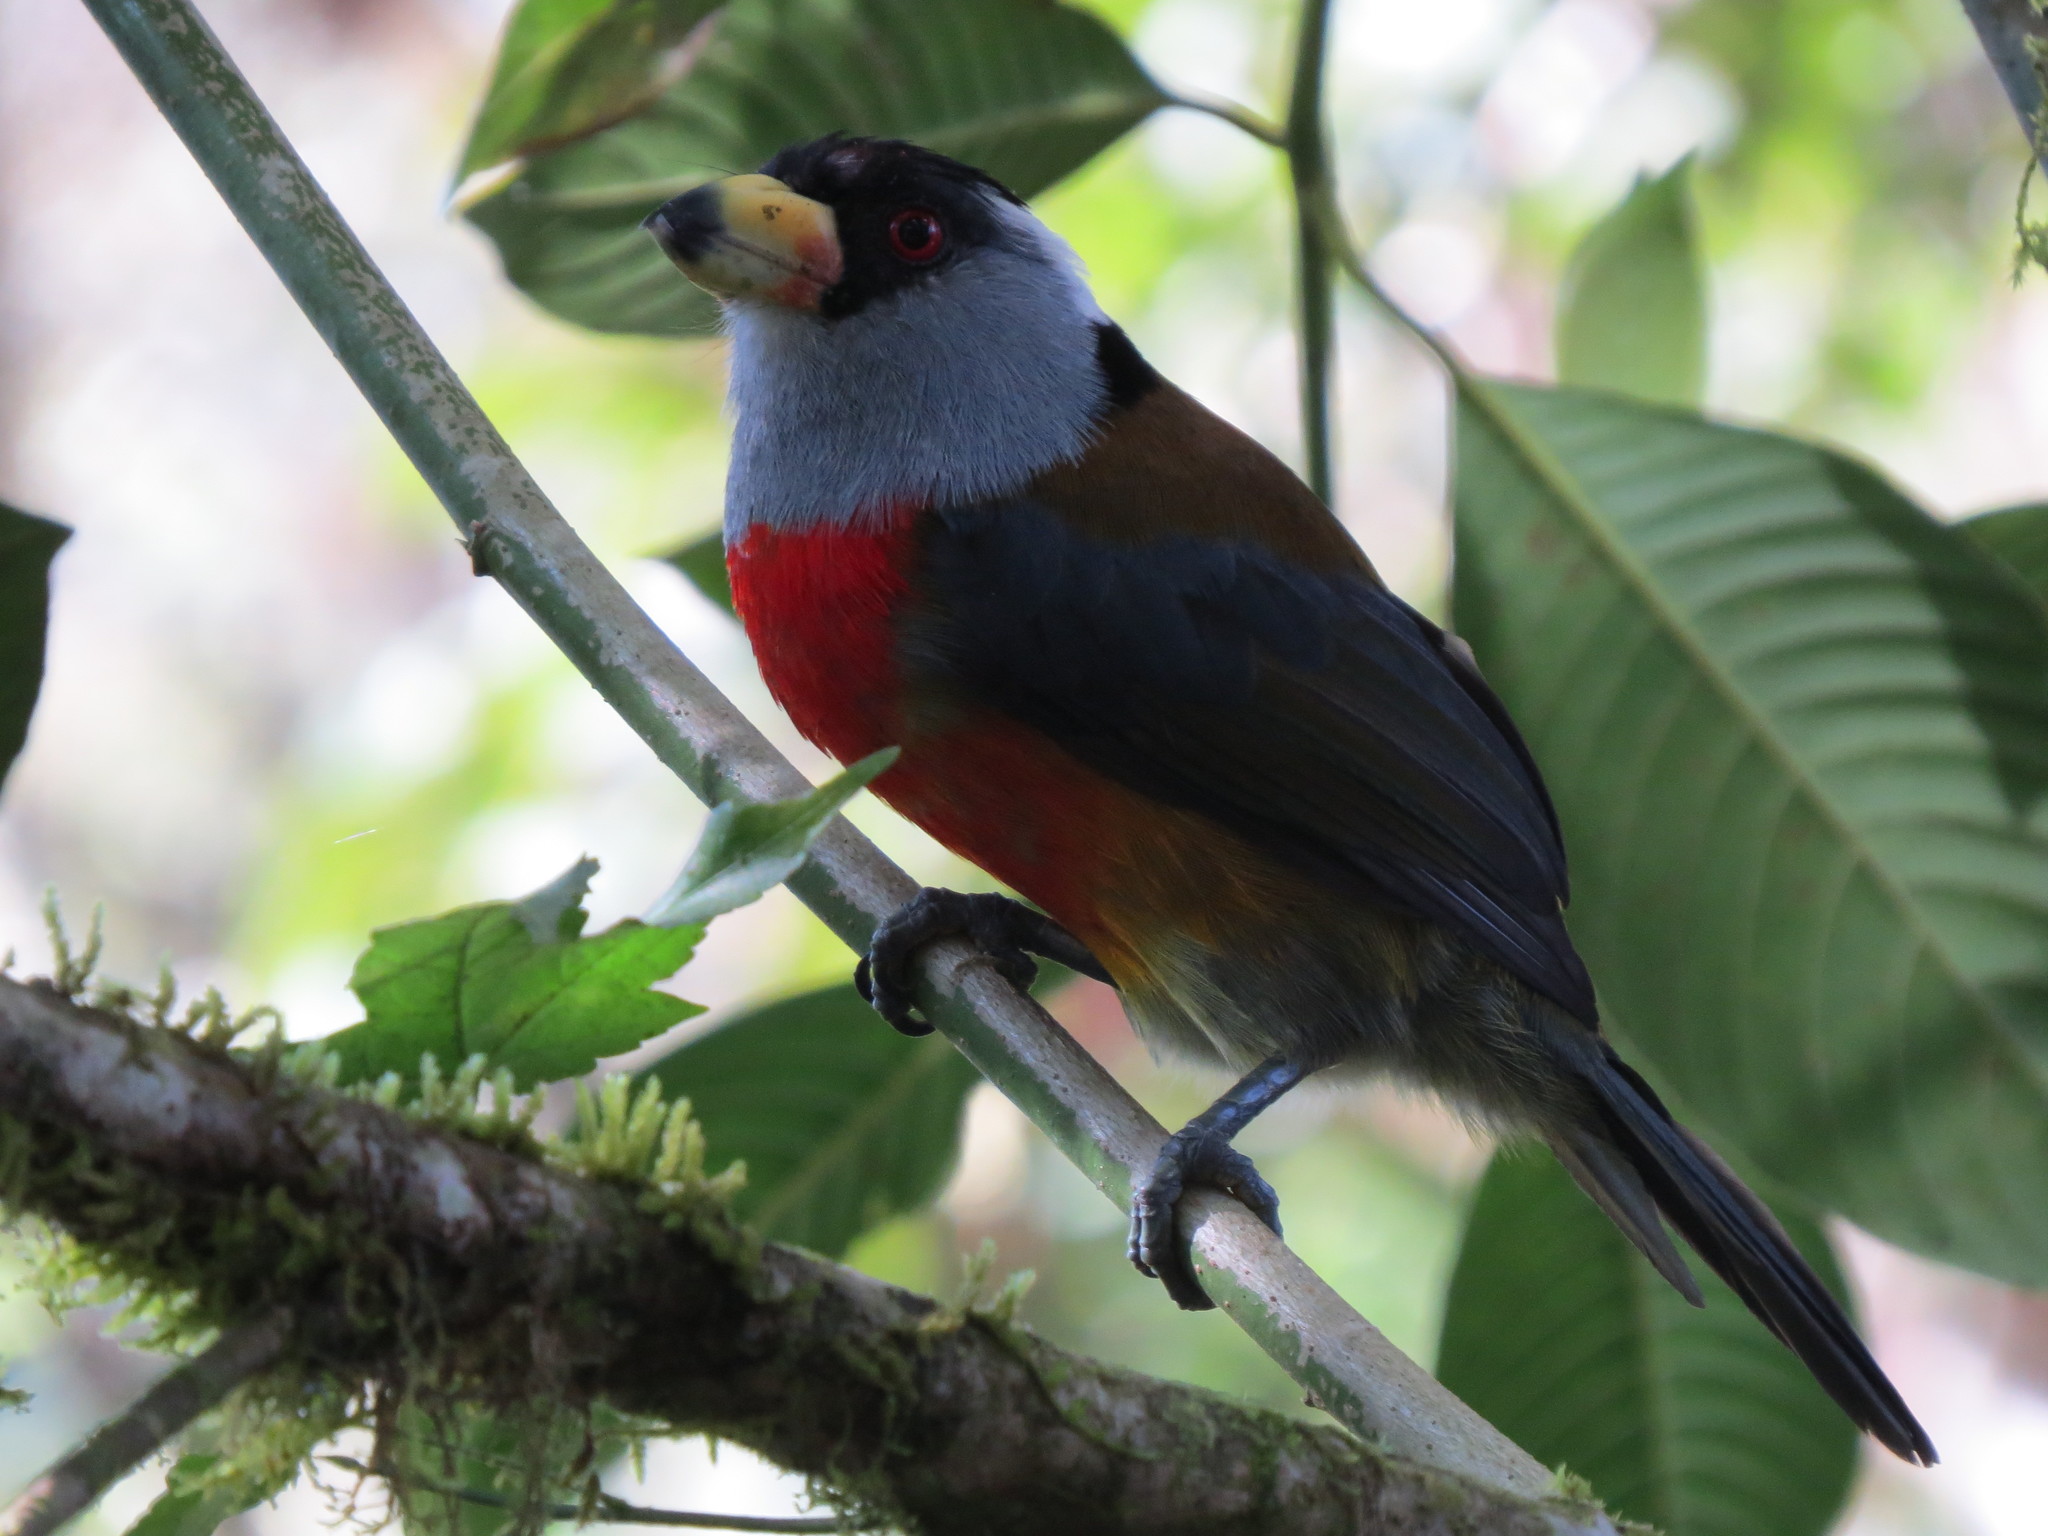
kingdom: Animalia
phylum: Chordata
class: Aves
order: Piciformes
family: Semnornithidae
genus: Semnornis
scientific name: Semnornis ramphastinus
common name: Toucan barbet
